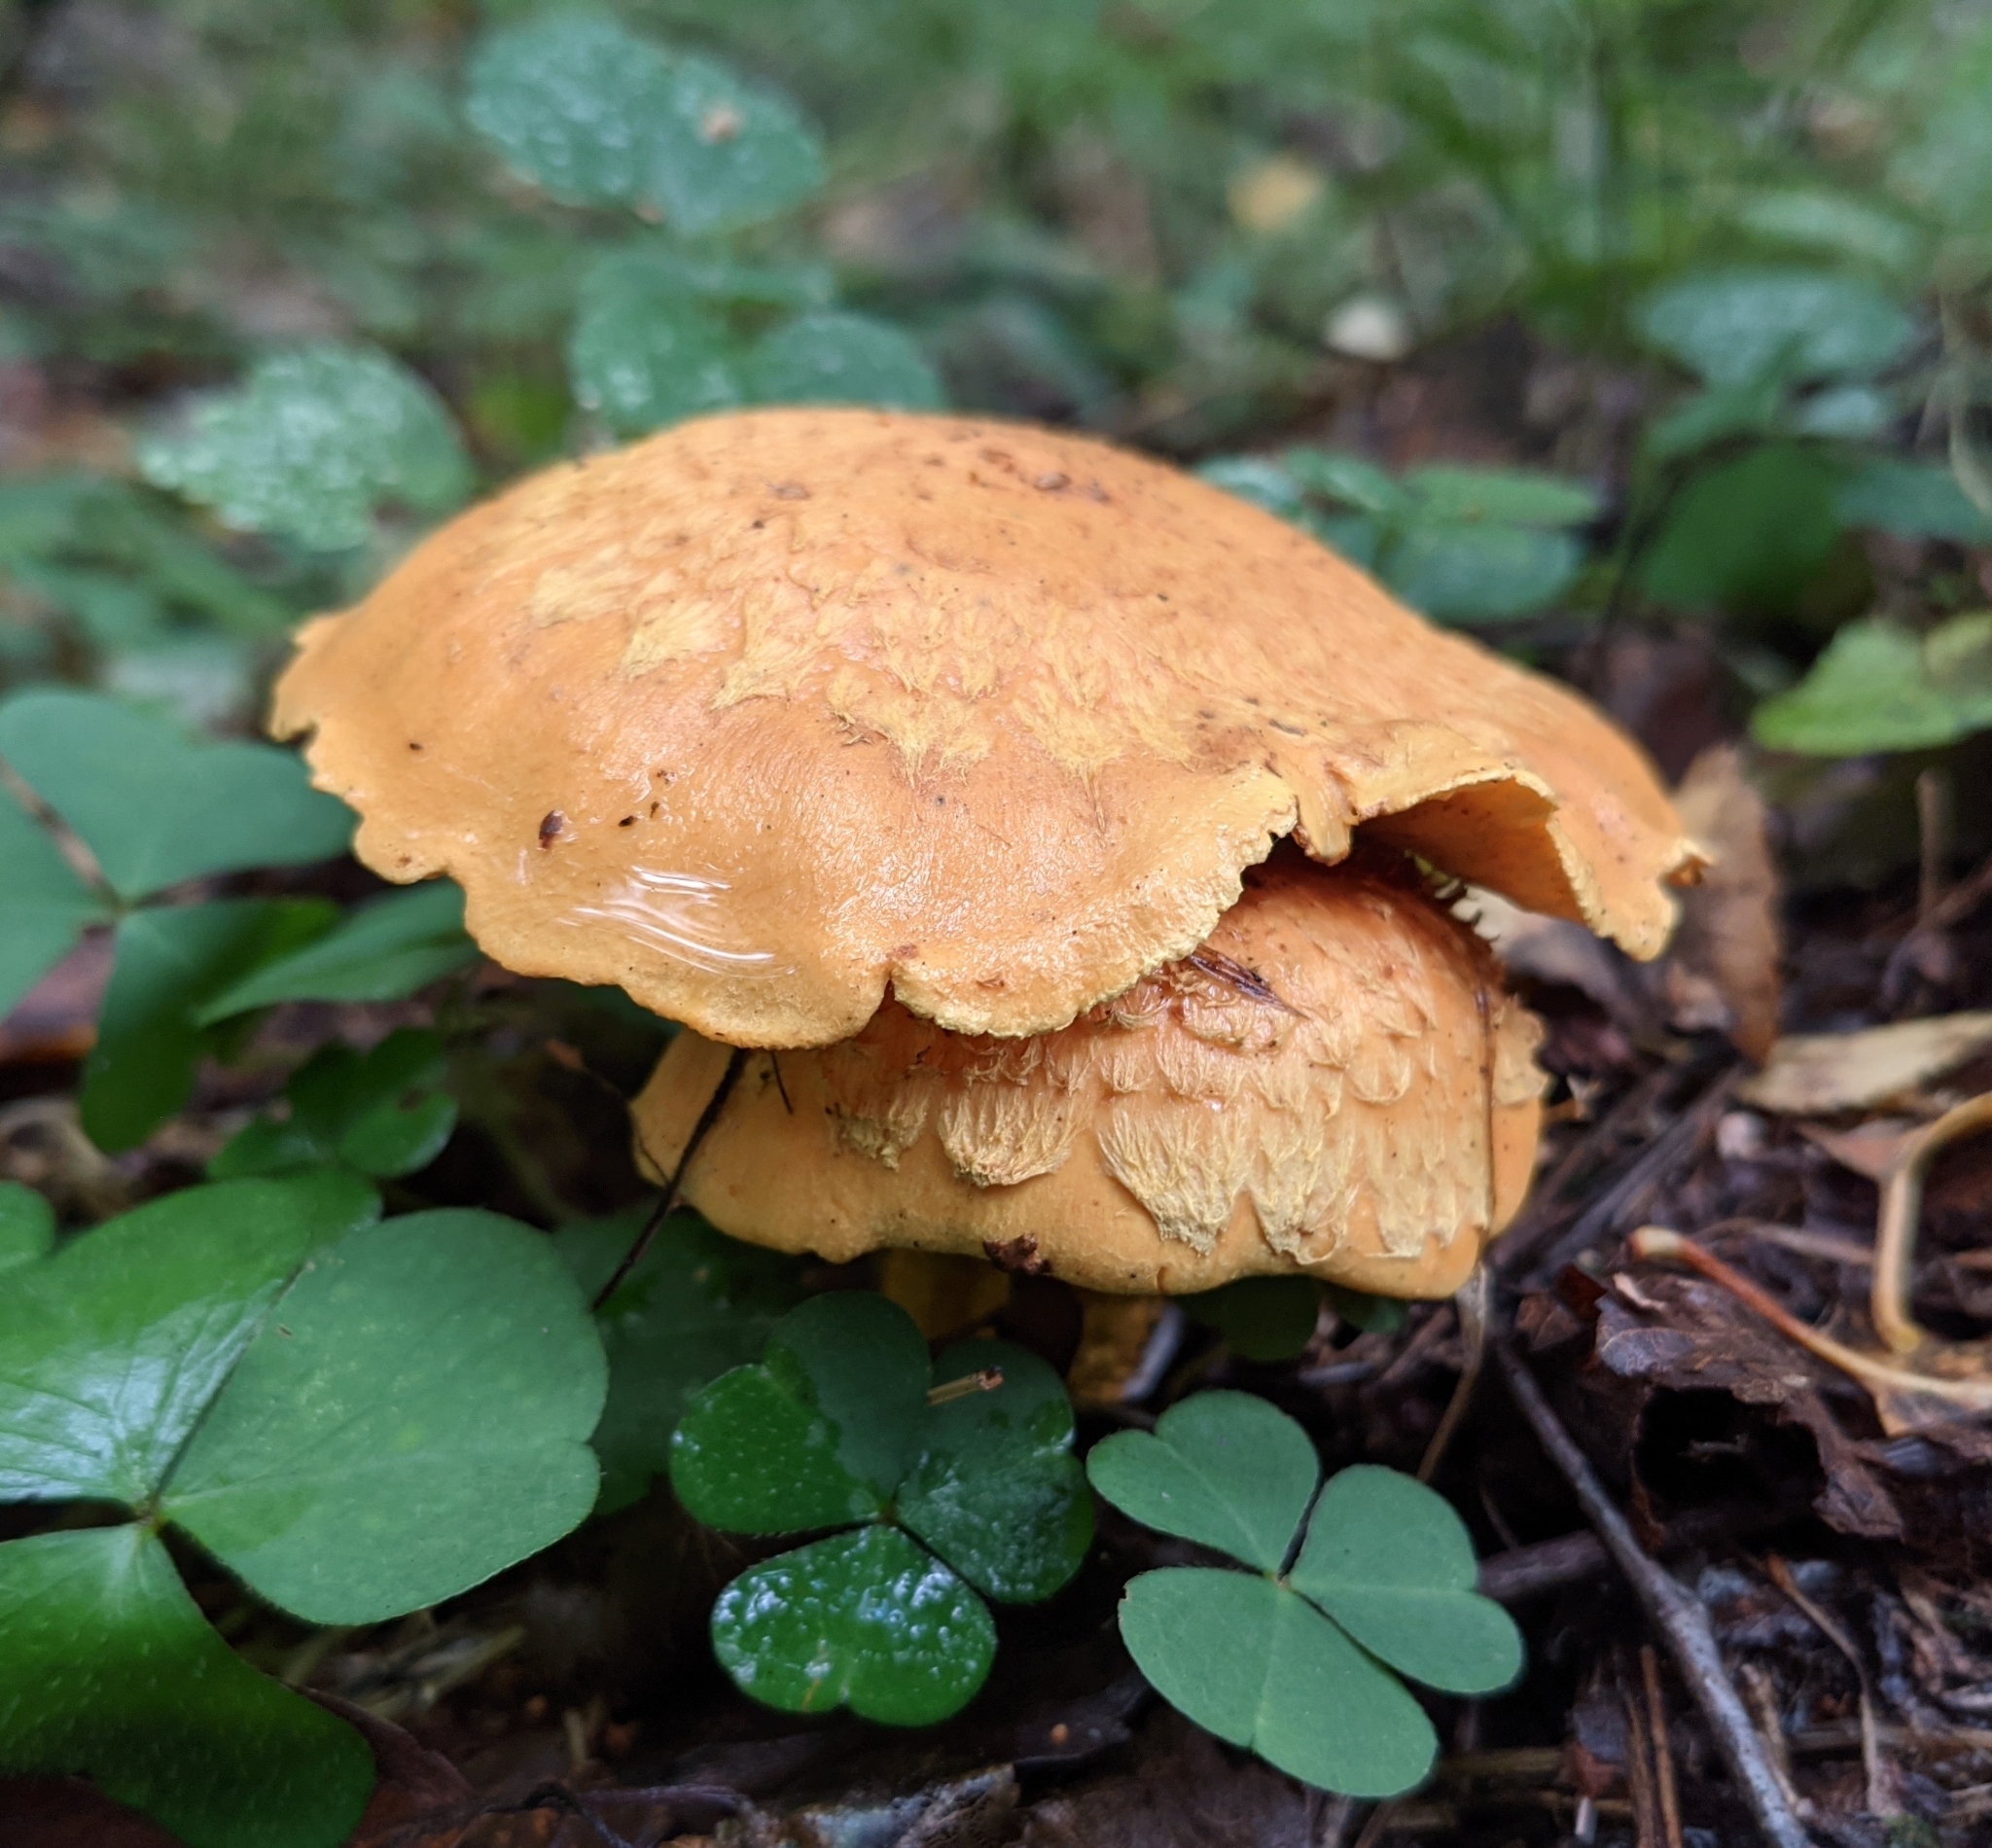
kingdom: Fungi
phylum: Basidiomycota
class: Agaricomycetes
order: Agaricales
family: Strophariaceae
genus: Pholiota
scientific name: Pholiota flammans
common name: Flaming scalycap
